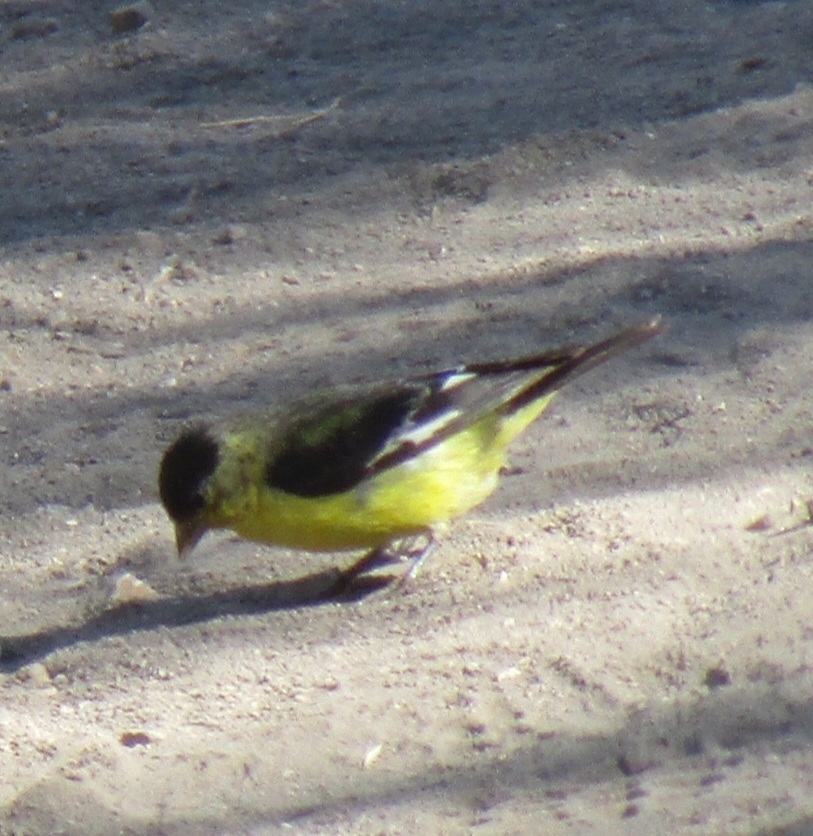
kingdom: Animalia
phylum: Chordata
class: Aves
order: Passeriformes
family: Fringillidae
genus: Spinus
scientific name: Spinus psaltria
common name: Lesser goldfinch
